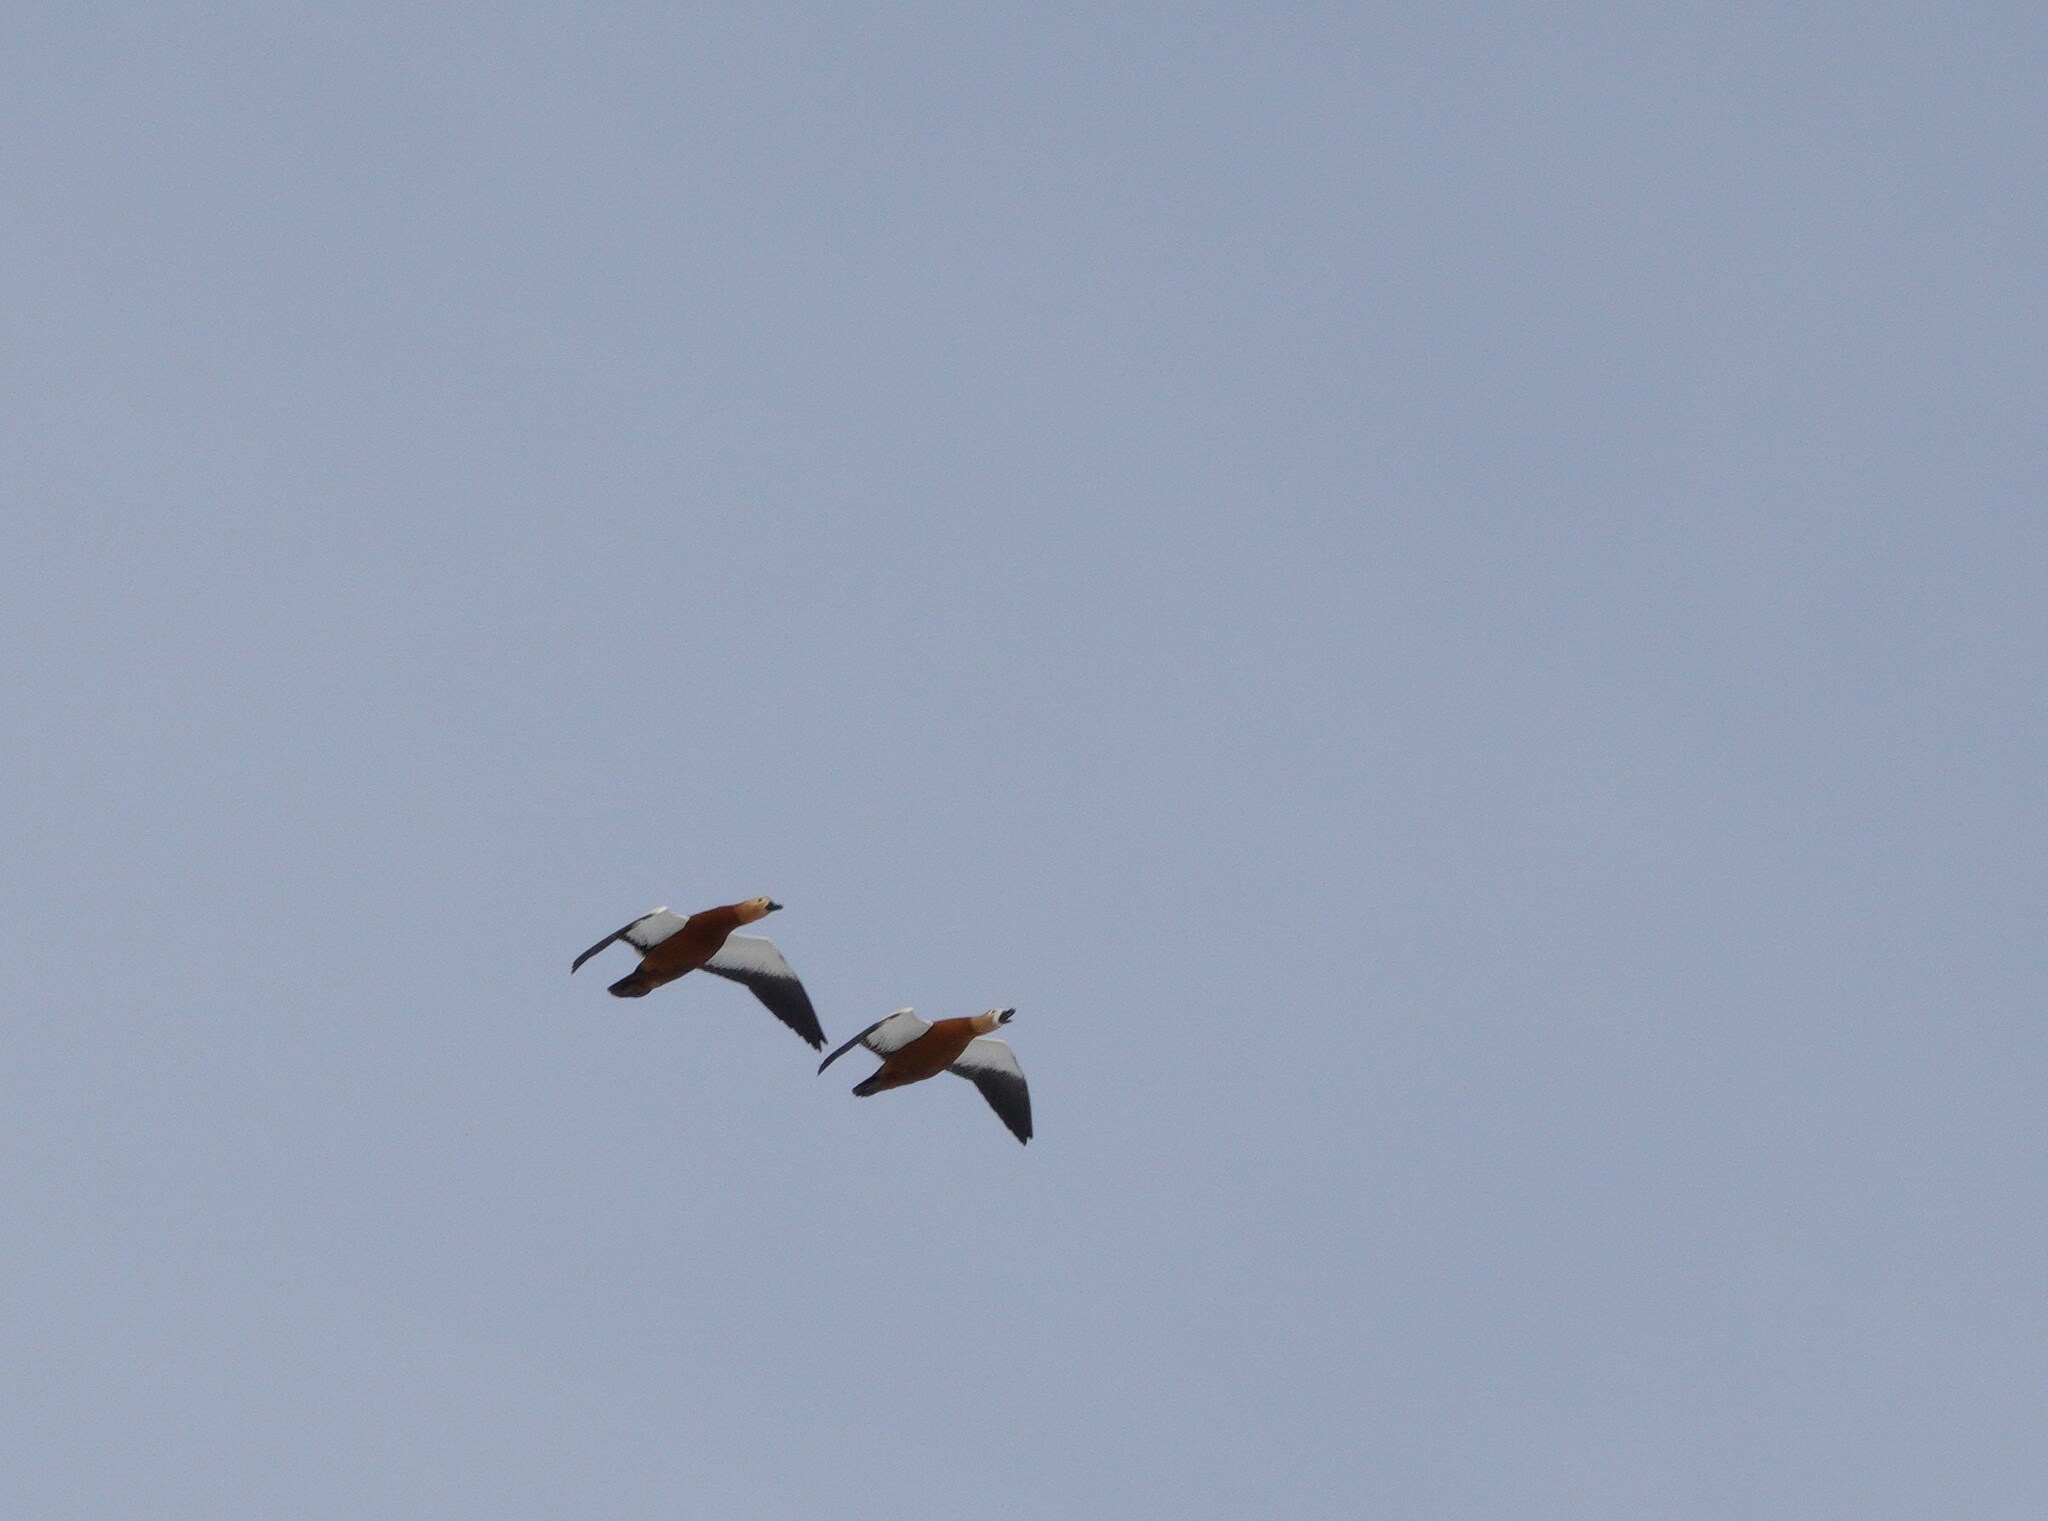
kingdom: Animalia
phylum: Chordata
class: Aves
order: Anseriformes
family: Anatidae
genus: Tadorna
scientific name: Tadorna ferruginea
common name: Ruddy shelduck
